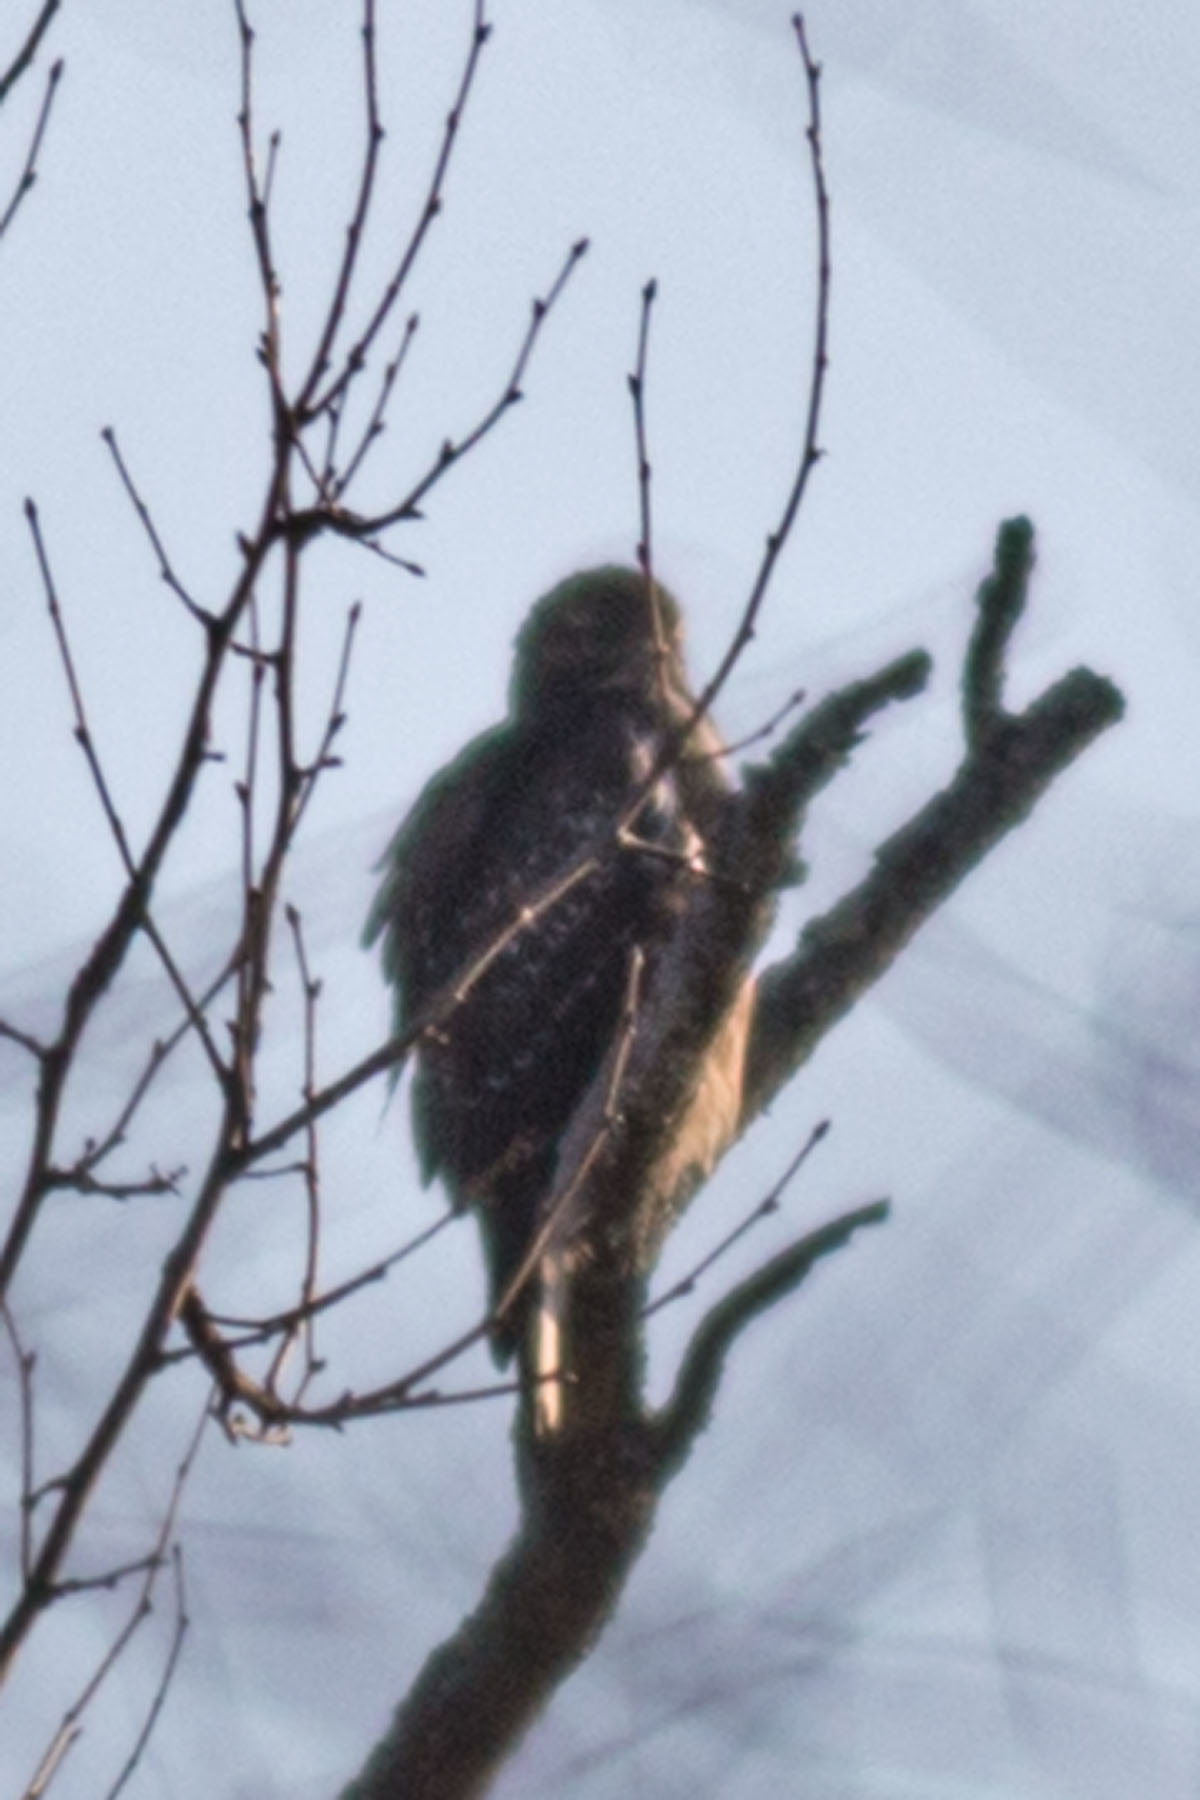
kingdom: Animalia
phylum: Chordata
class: Aves
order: Accipitriformes
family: Accipitridae
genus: Buteo
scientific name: Buteo lineatus
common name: Red-shouldered hawk
